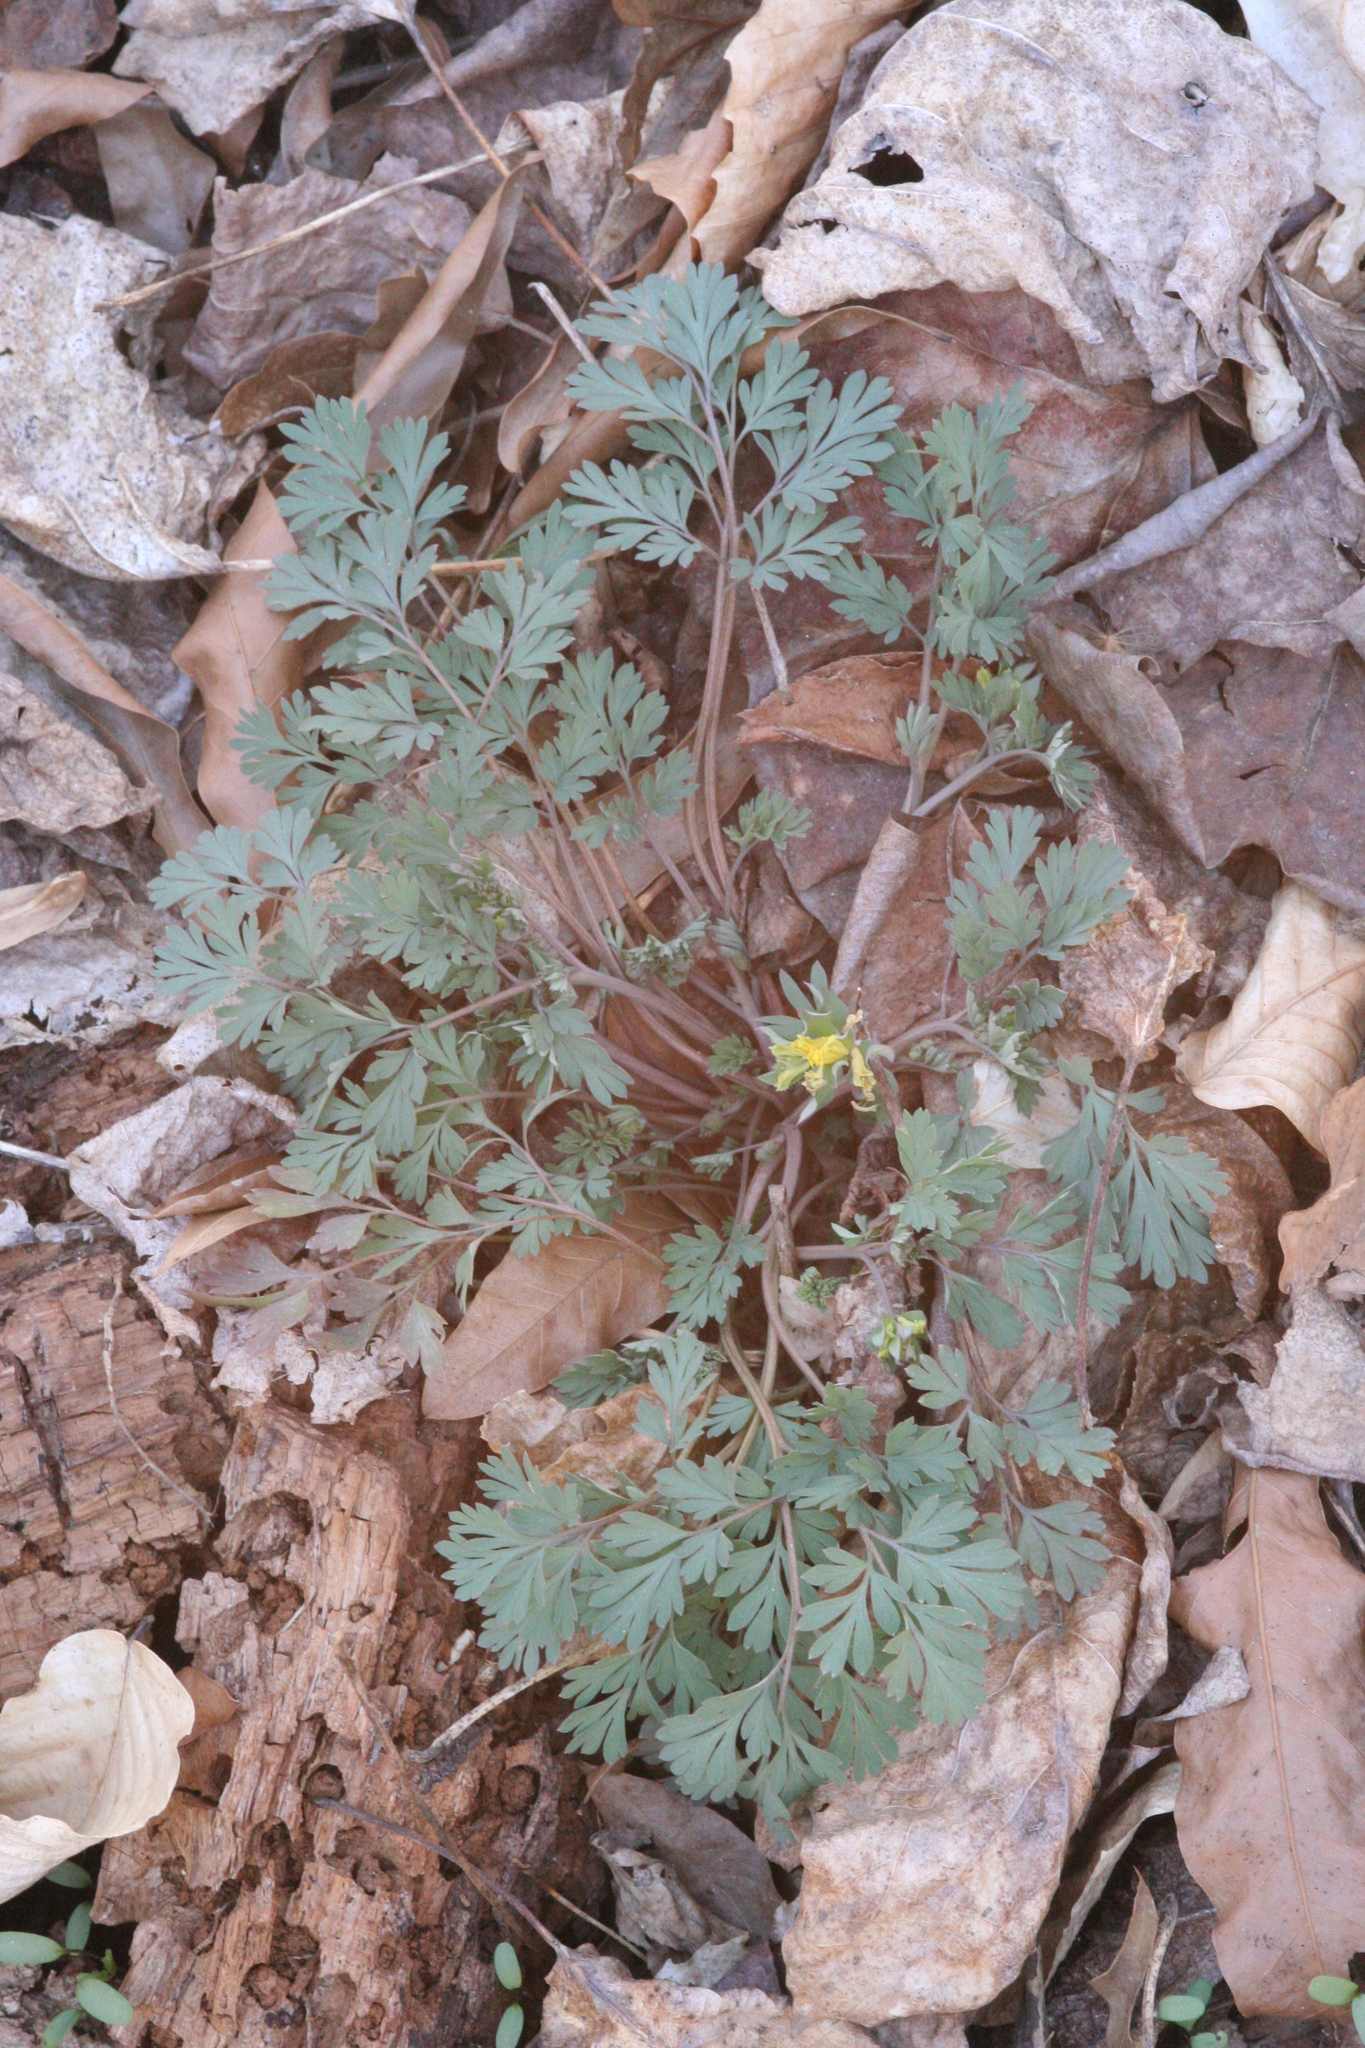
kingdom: Plantae
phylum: Tracheophyta
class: Magnoliopsida
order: Ranunculales
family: Papaveraceae
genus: Corydalis
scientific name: Corydalis flavula
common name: Yellow corydalis
